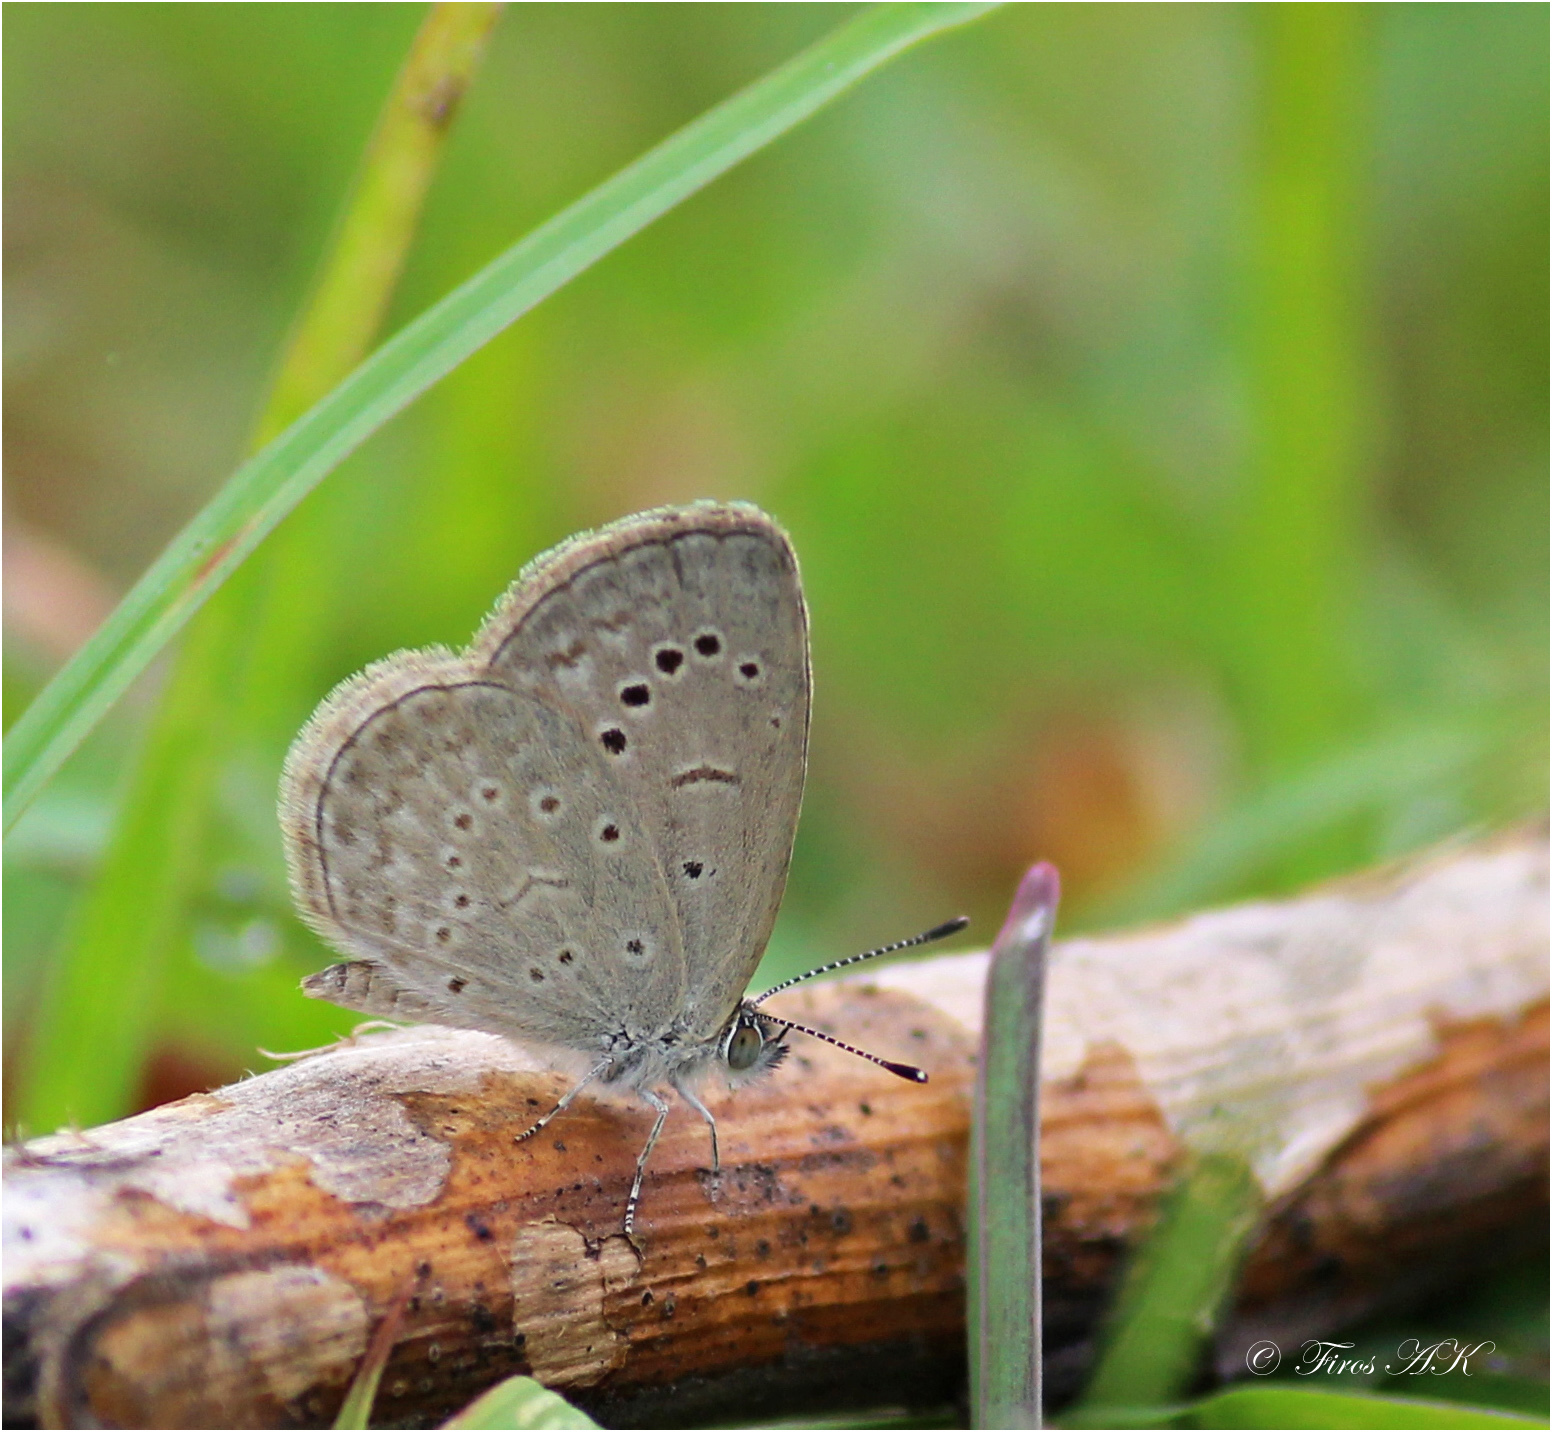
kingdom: Animalia
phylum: Arthropoda
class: Insecta
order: Lepidoptera
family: Lycaenidae
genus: Pseudozizeeria
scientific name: Pseudozizeeria maha
